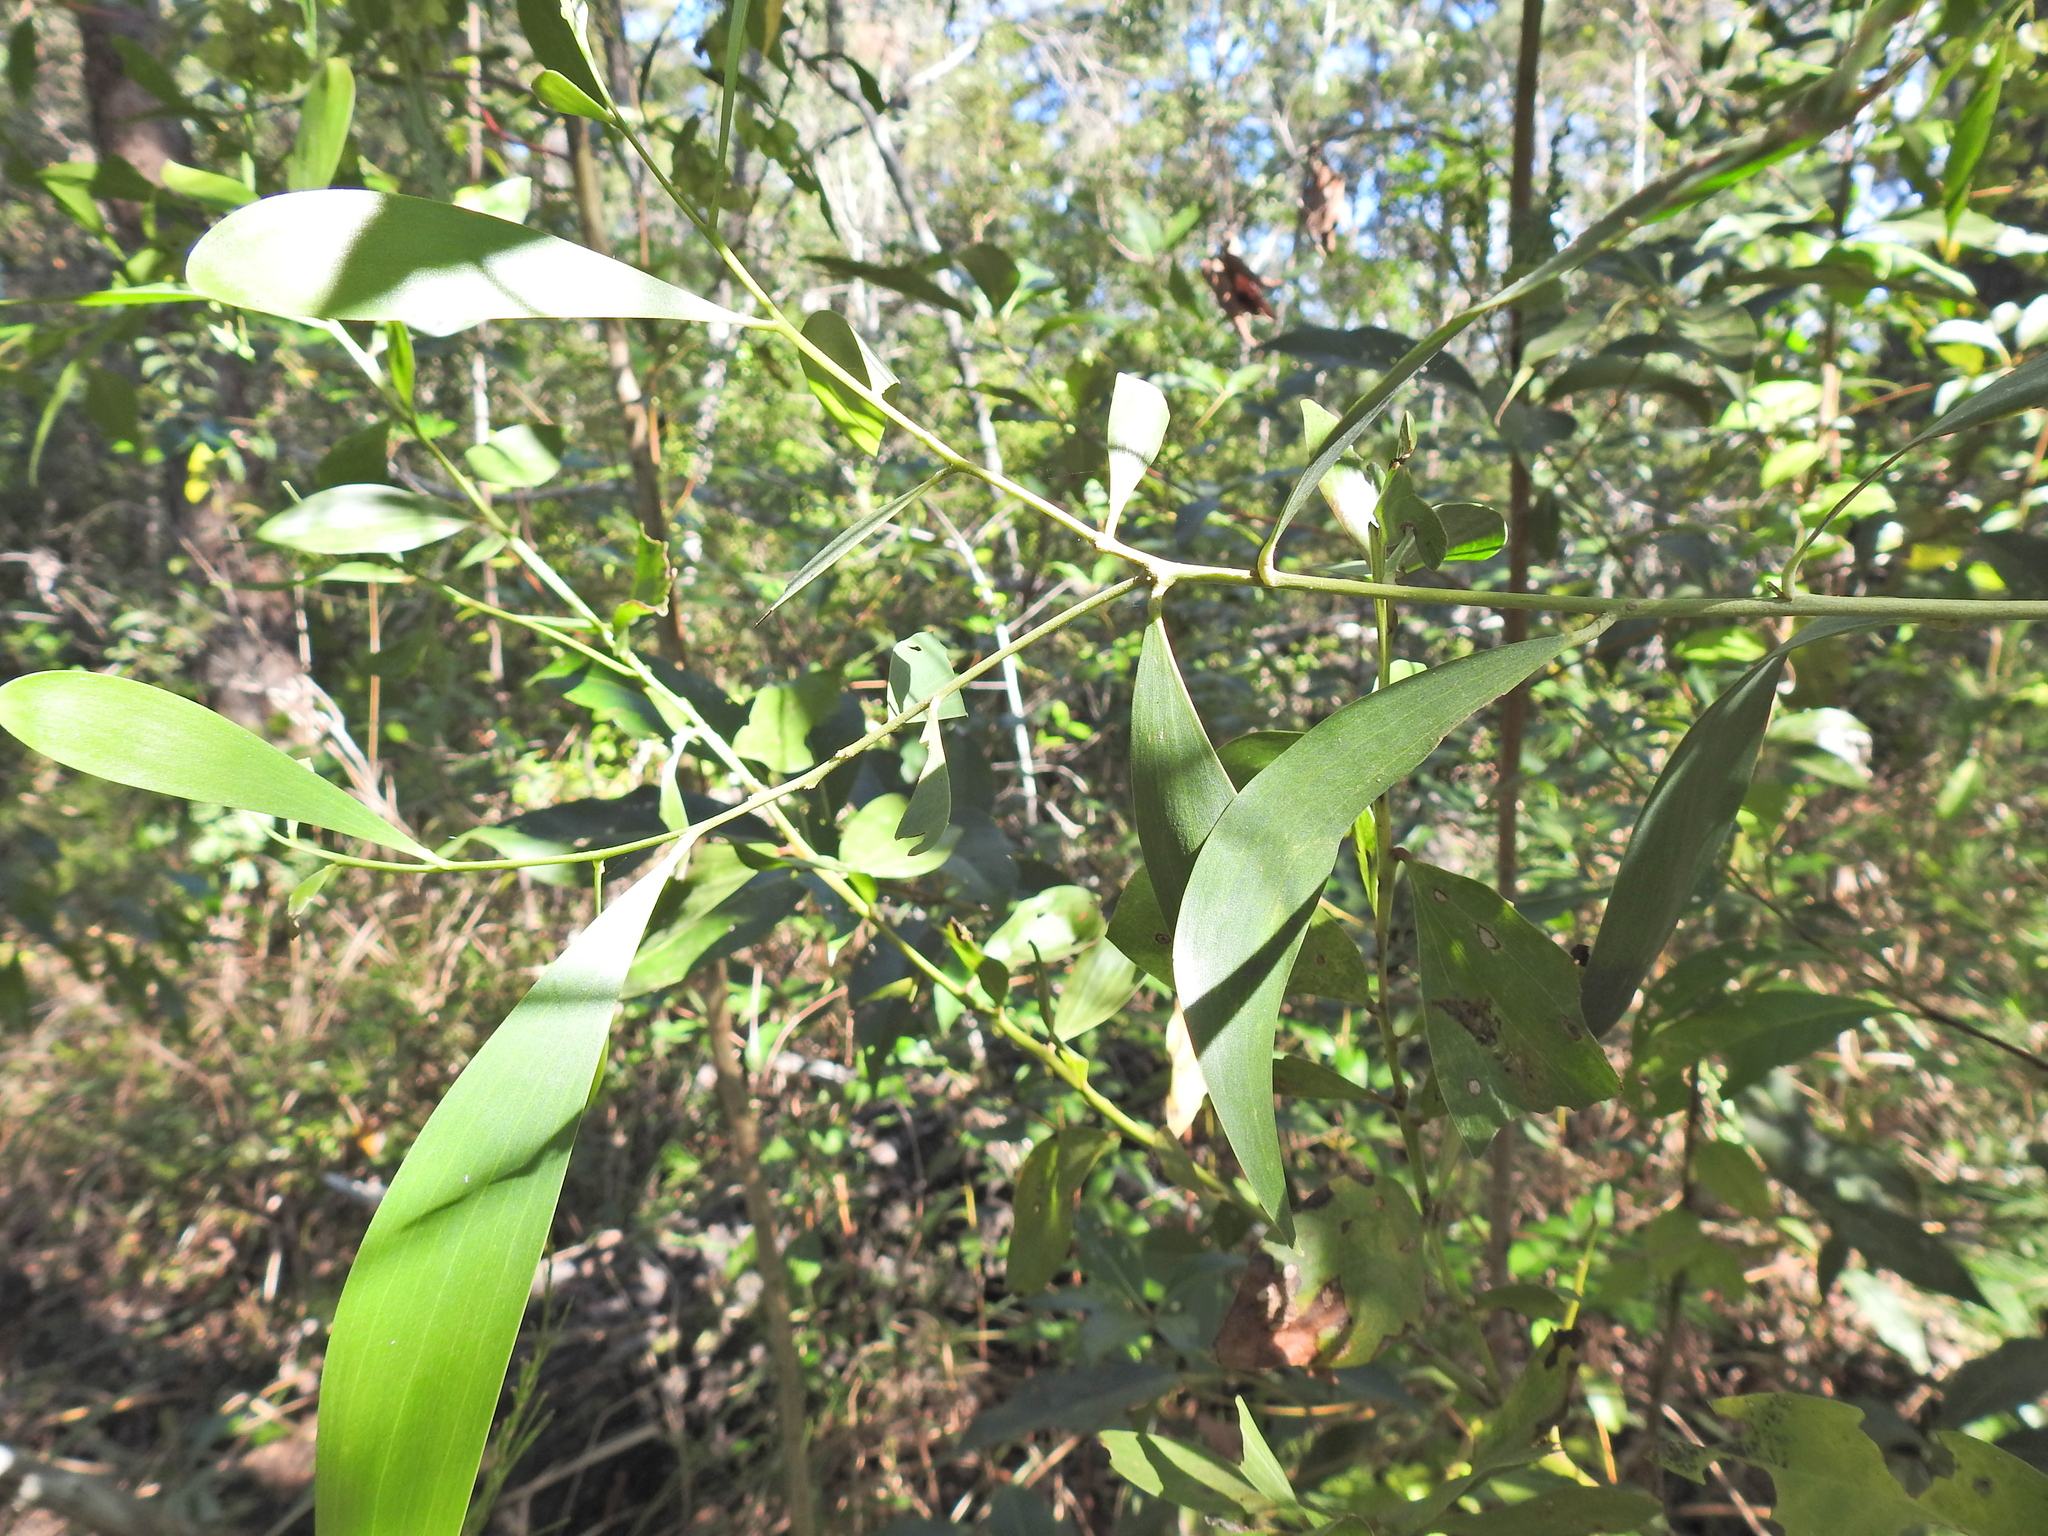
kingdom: Plantae
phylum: Tracheophyta
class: Magnoliopsida
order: Fabales
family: Fabaceae
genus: Acacia
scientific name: Acacia disparrima
